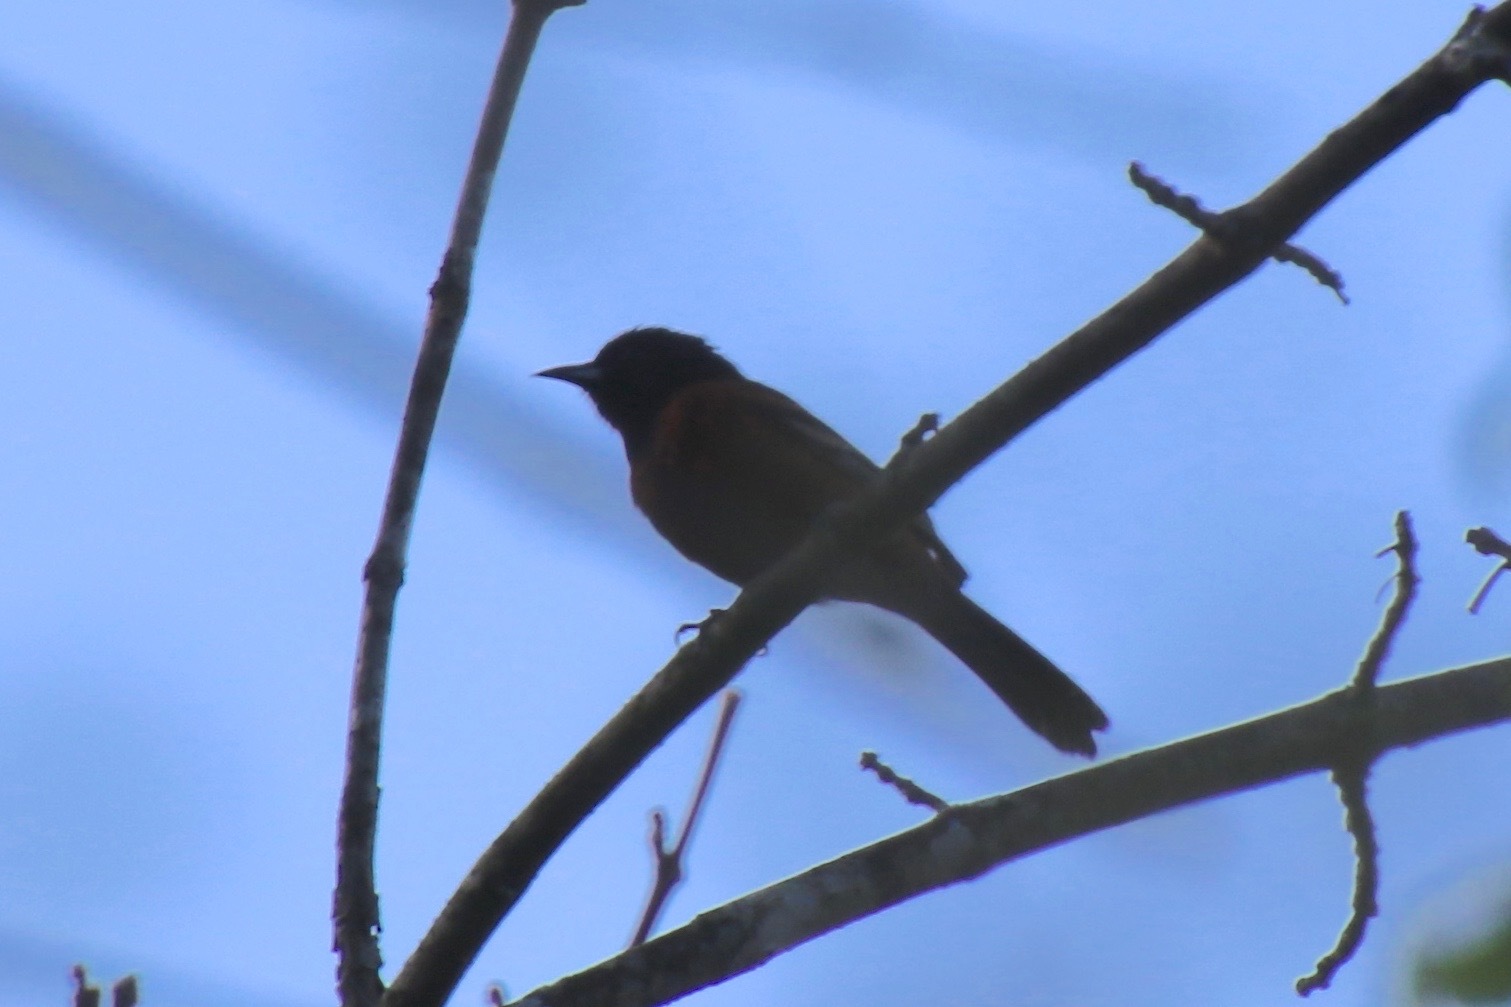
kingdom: Animalia
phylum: Chordata
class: Aves
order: Passeriformes
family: Icteridae
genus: Icterus
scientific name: Icterus spurius
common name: Orchard oriole
